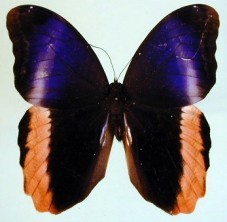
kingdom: Animalia
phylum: Arthropoda
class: Insecta
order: Lepidoptera
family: Nymphalidae
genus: Caligo
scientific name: Caligo atreus
